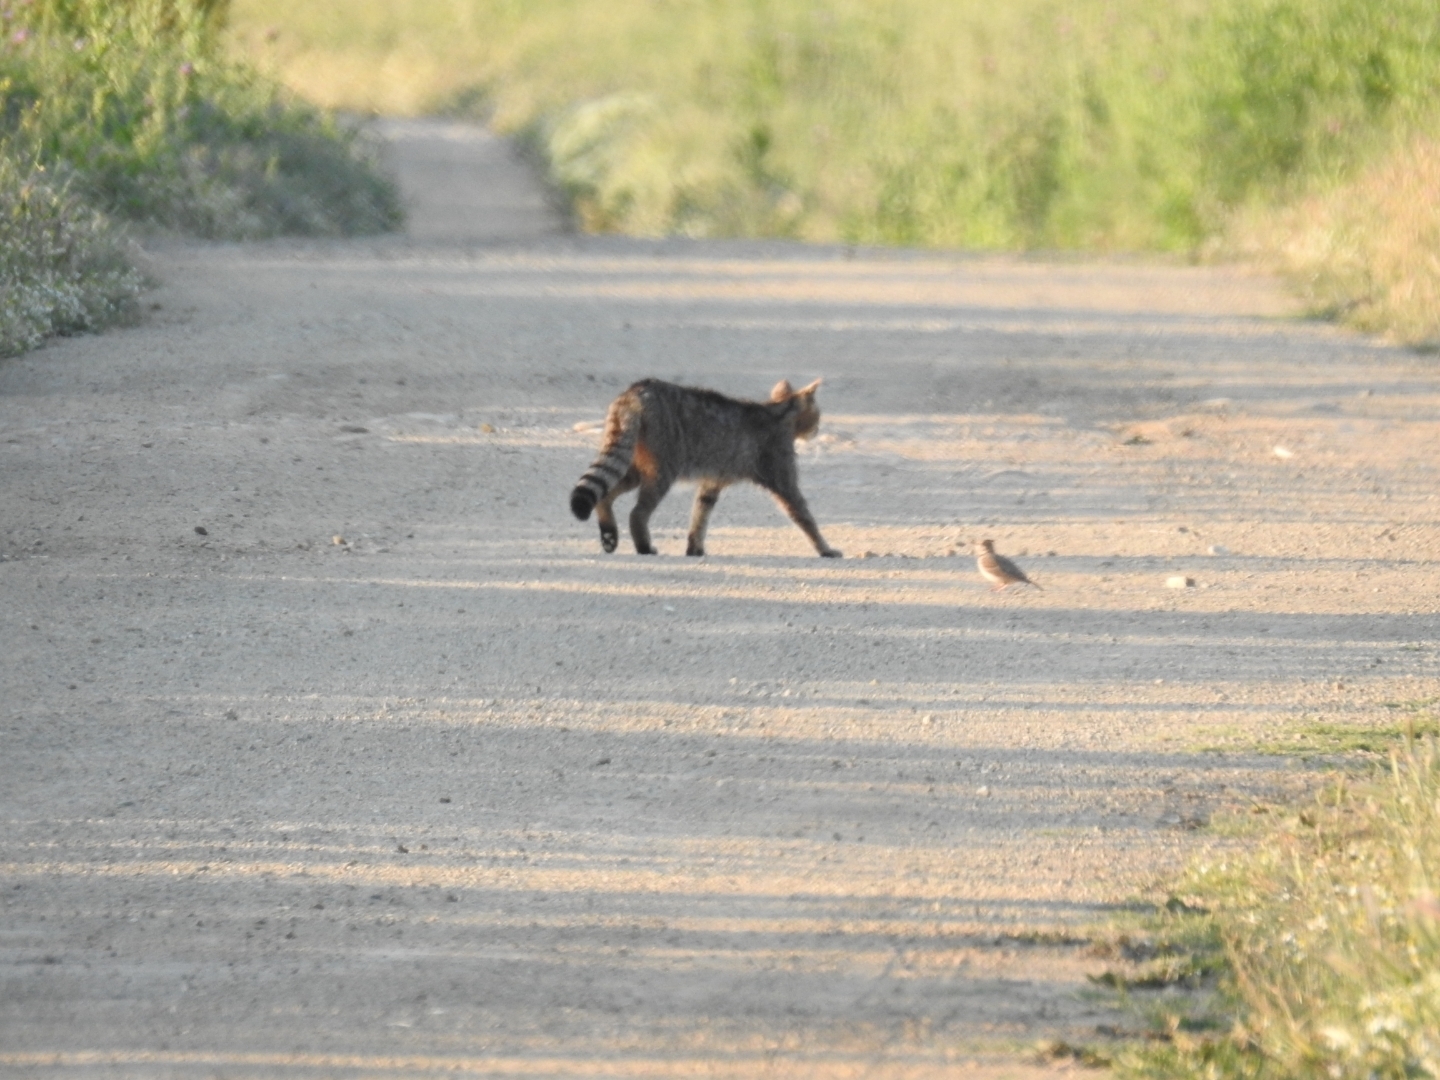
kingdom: Animalia
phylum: Chordata
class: Mammalia
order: Carnivora
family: Felidae
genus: Felis
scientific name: Felis silvestris
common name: Wildcat
